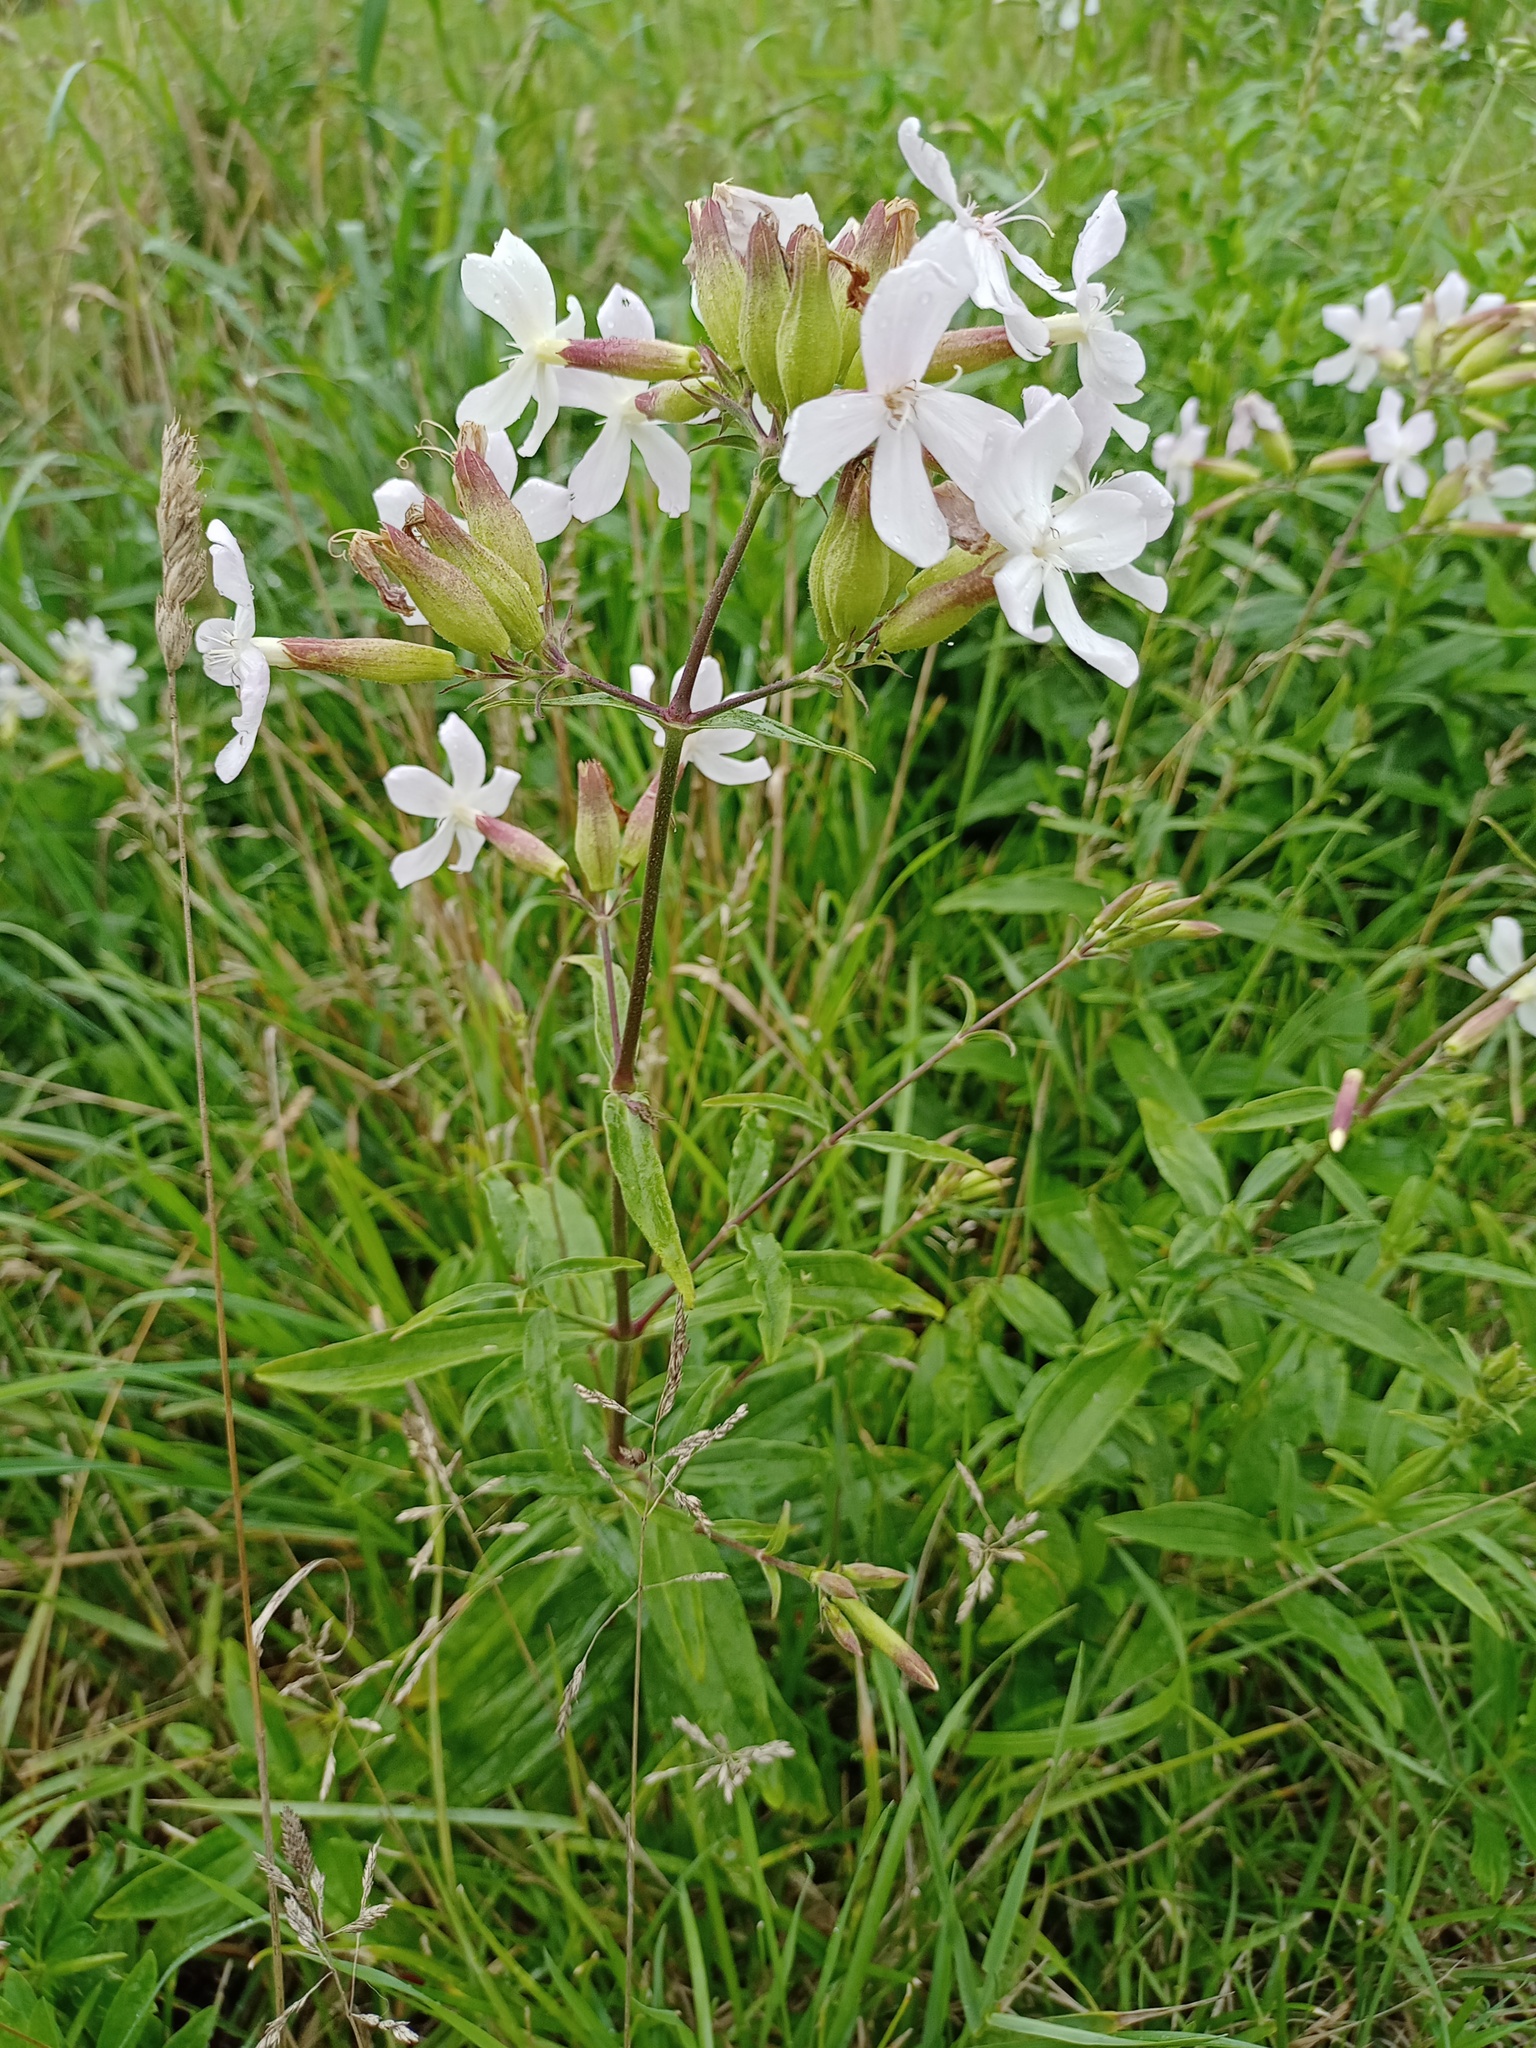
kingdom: Plantae
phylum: Tracheophyta
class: Magnoliopsida
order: Caryophyllales
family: Caryophyllaceae
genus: Saponaria
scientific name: Saponaria officinalis
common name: Soapwort
